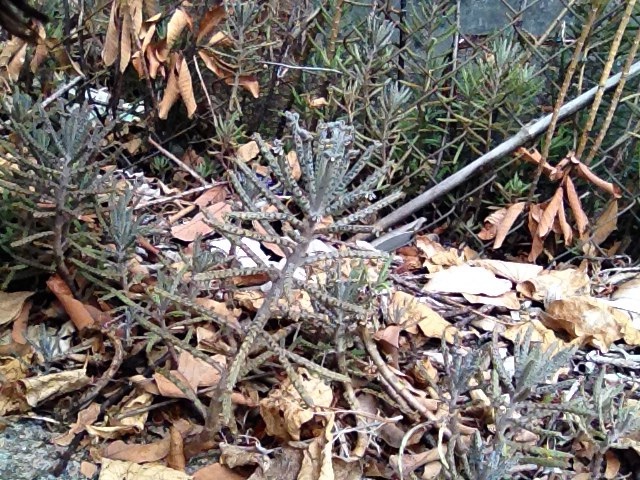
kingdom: Plantae
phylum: Tracheophyta
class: Magnoliopsida
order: Saxifragales
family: Crassulaceae
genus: Kalanchoe
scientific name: Kalanchoe delagoensis
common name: Chandelier plant
